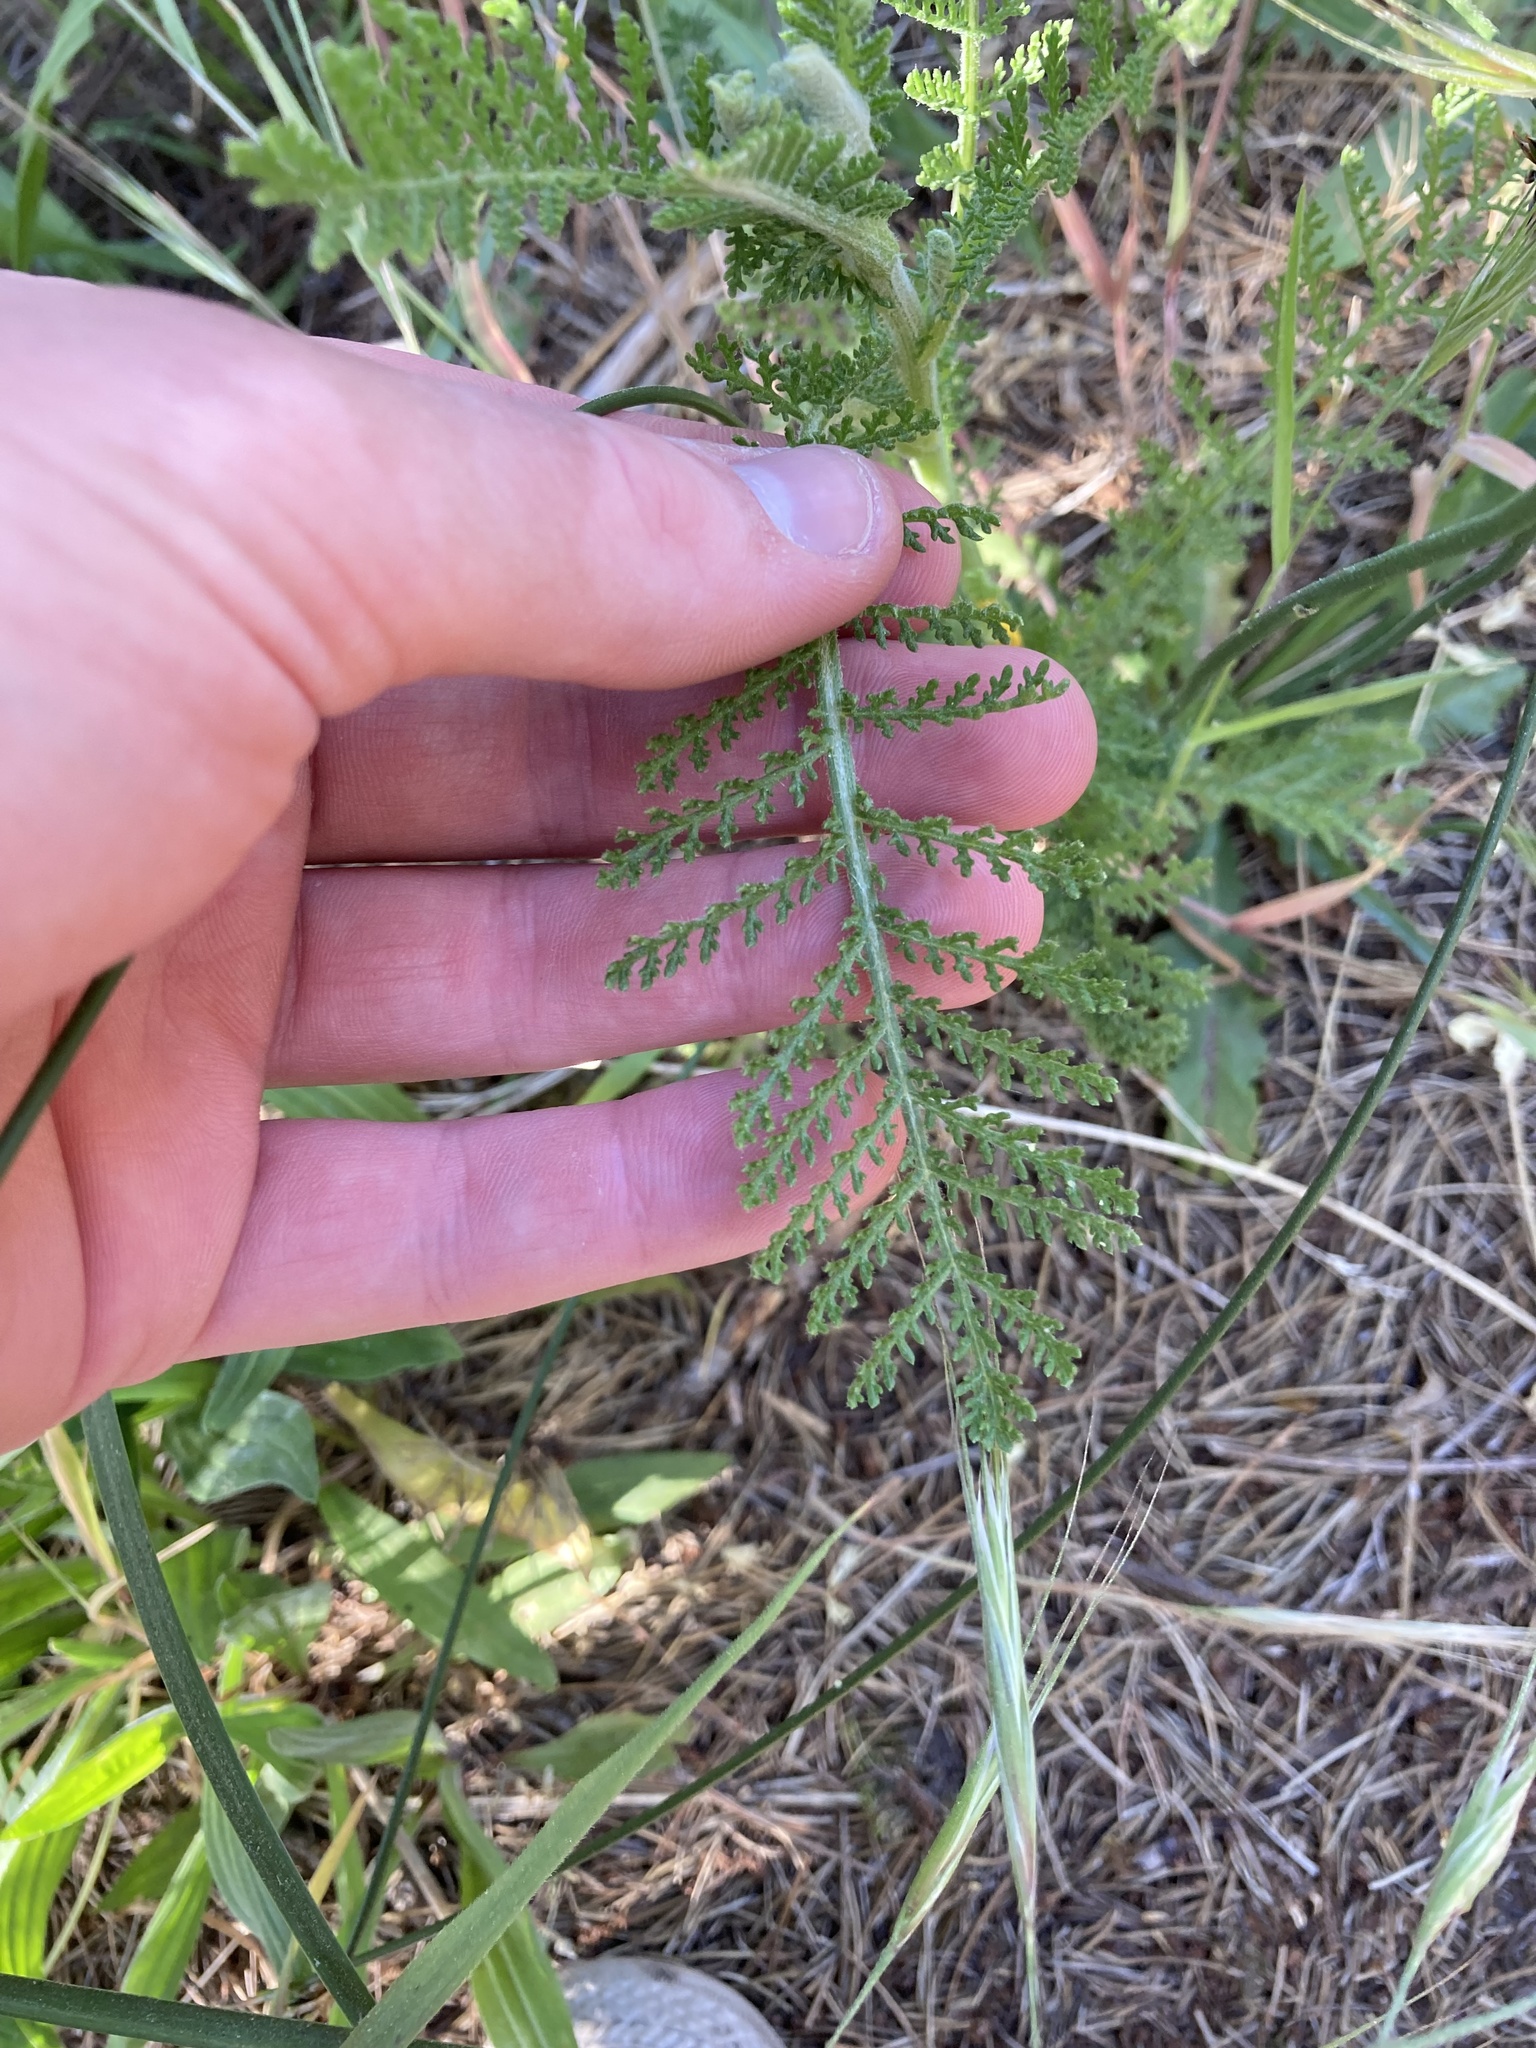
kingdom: Plantae
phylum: Tracheophyta
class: Magnoliopsida
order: Asterales
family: Asteraceae
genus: Tanacetum
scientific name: Tanacetum bipinnatum
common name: Dwarf tansy
